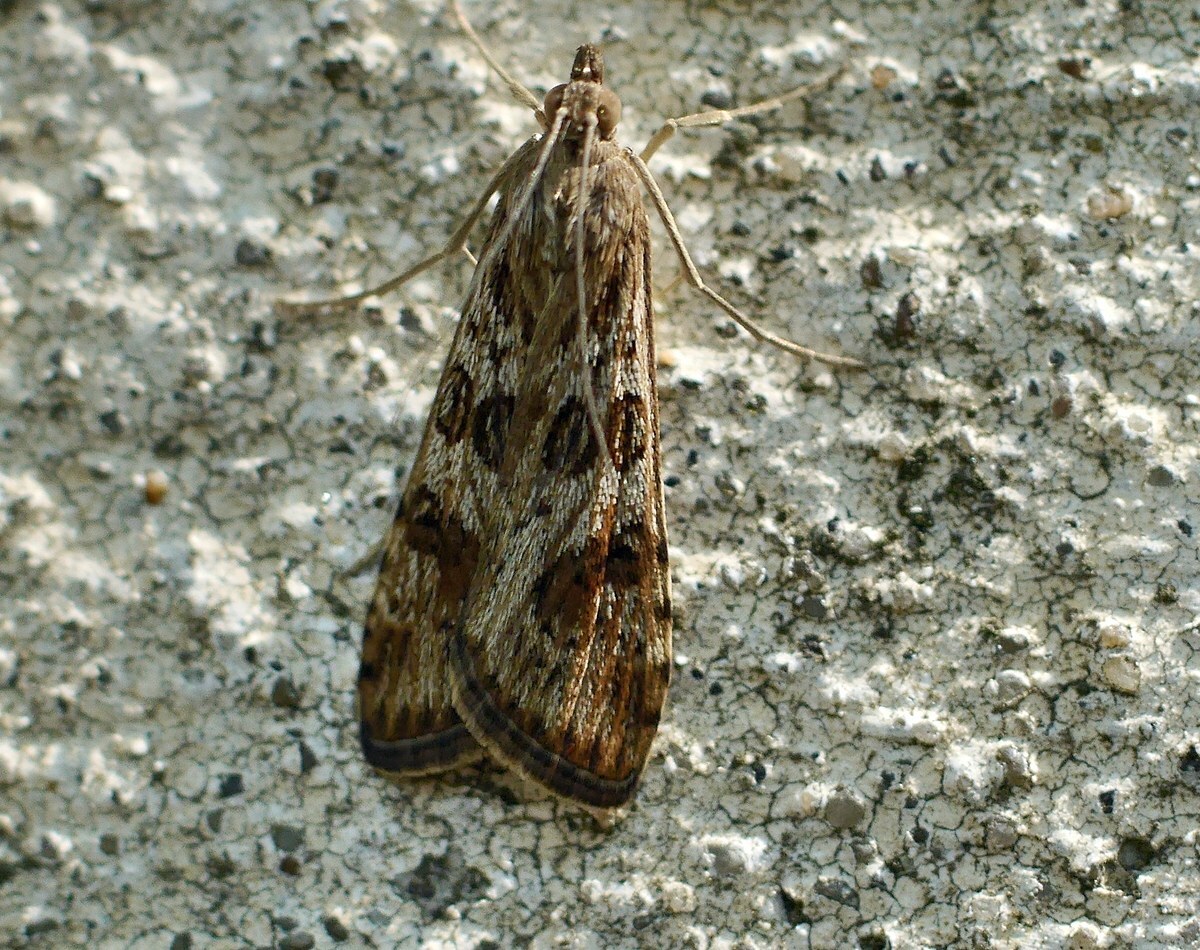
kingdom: Animalia
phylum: Arthropoda
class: Insecta
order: Lepidoptera
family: Crambidae
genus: Nomophila
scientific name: Nomophila noctuella
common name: Rush veneer
